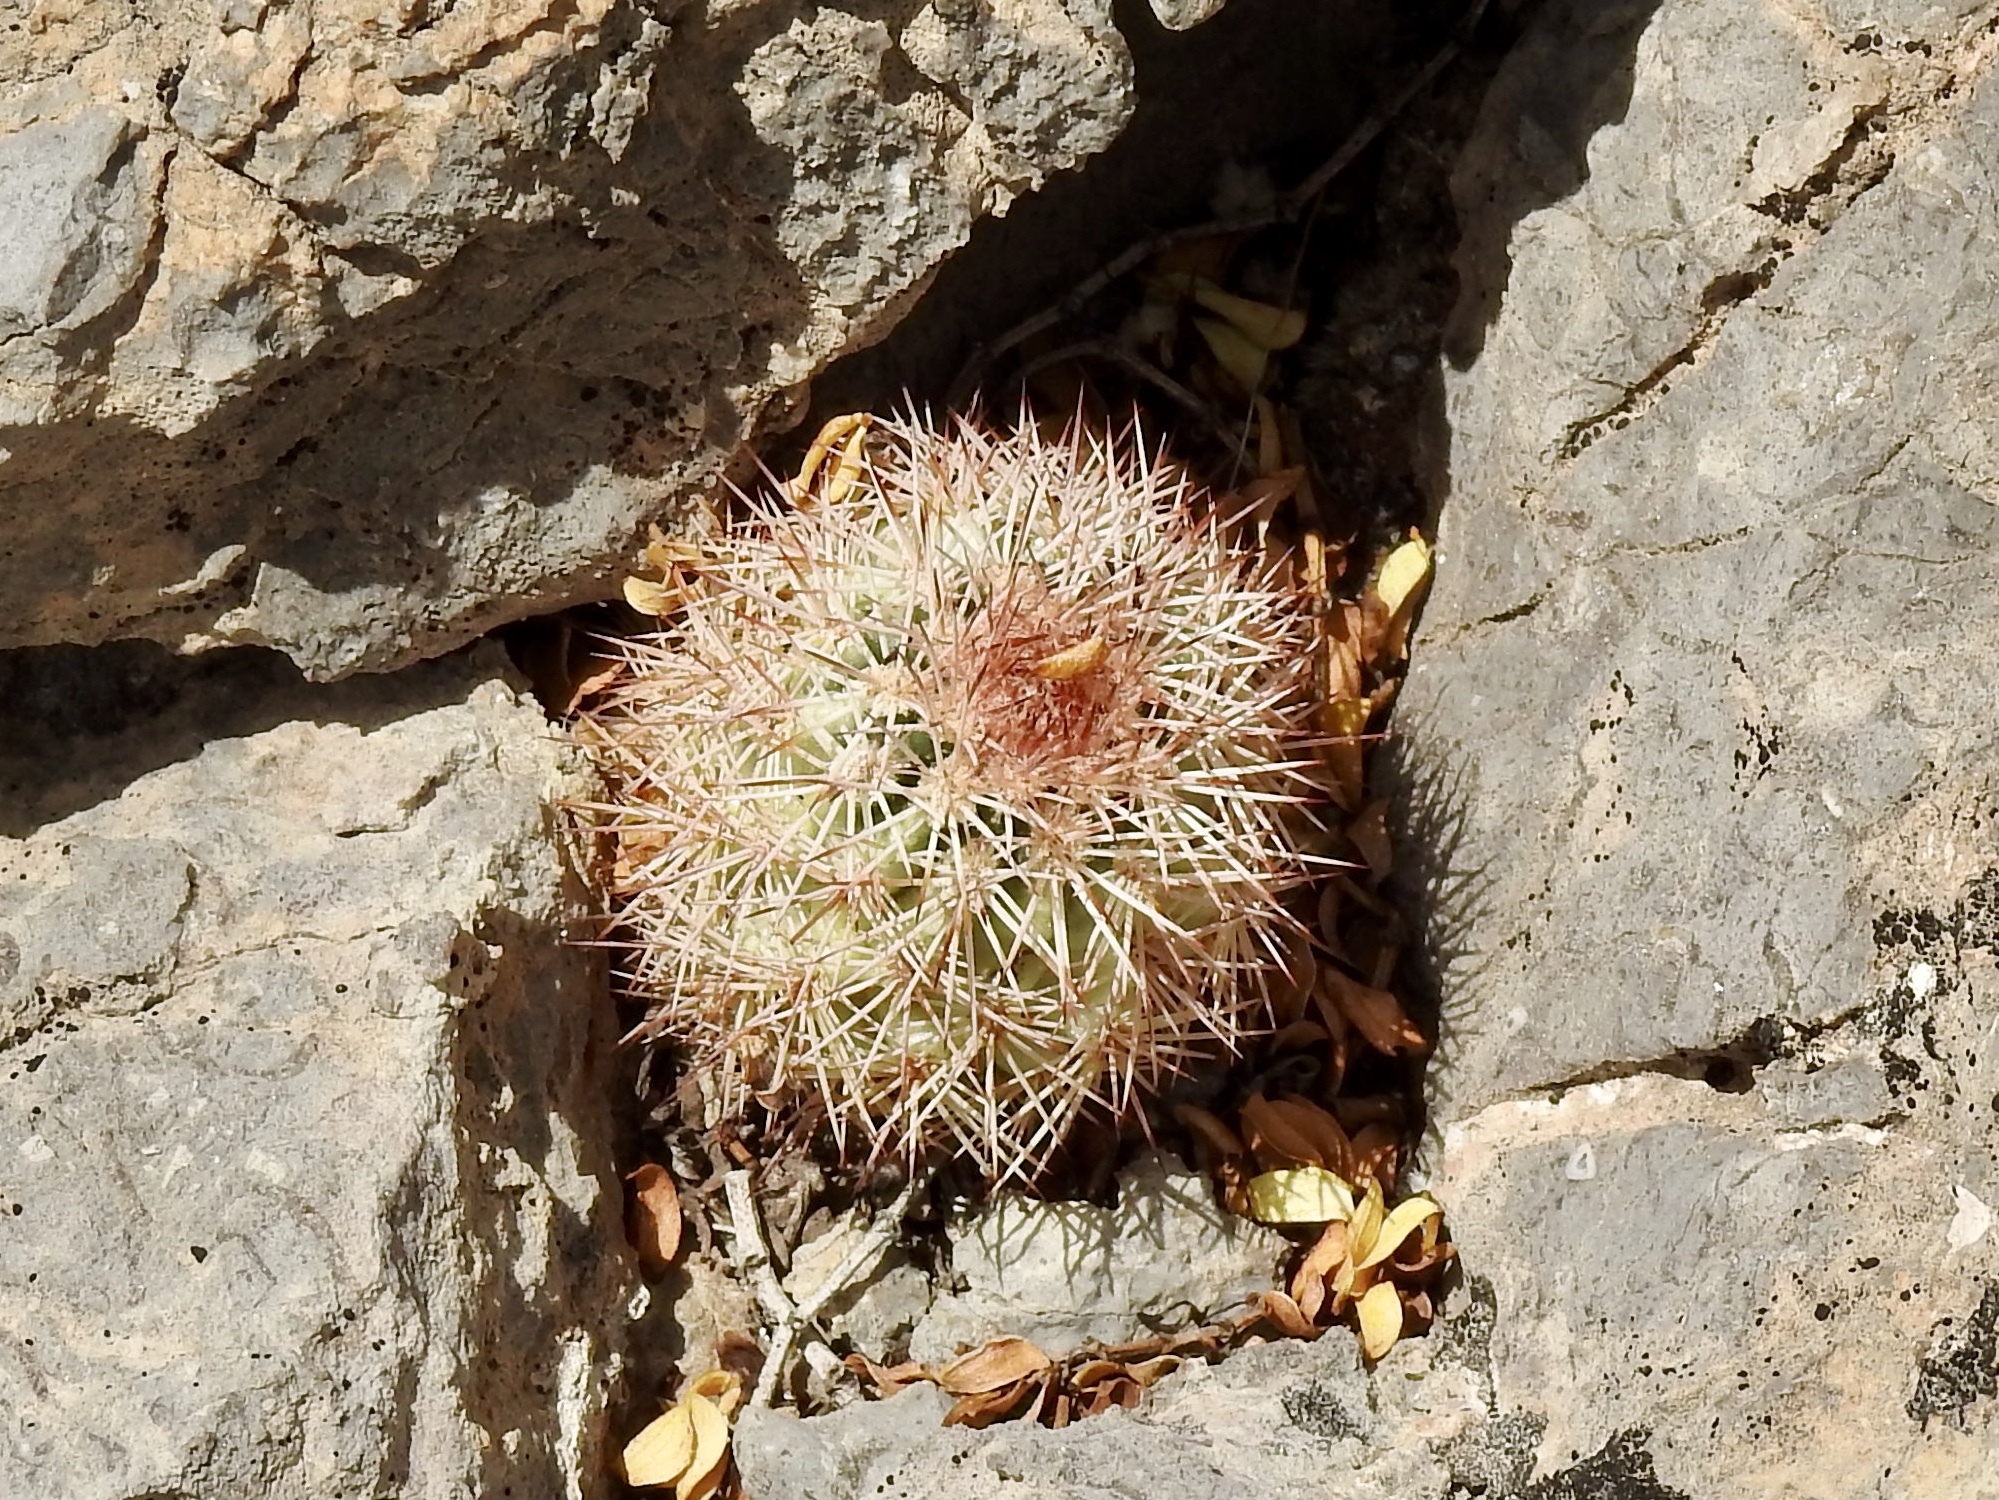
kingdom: Plantae
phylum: Tracheophyta
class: Magnoliopsida
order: Caryophyllales
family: Cactaceae
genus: Echinocereus
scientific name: Echinocereus dasyacanthus
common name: Spiny hedgehog cactus
